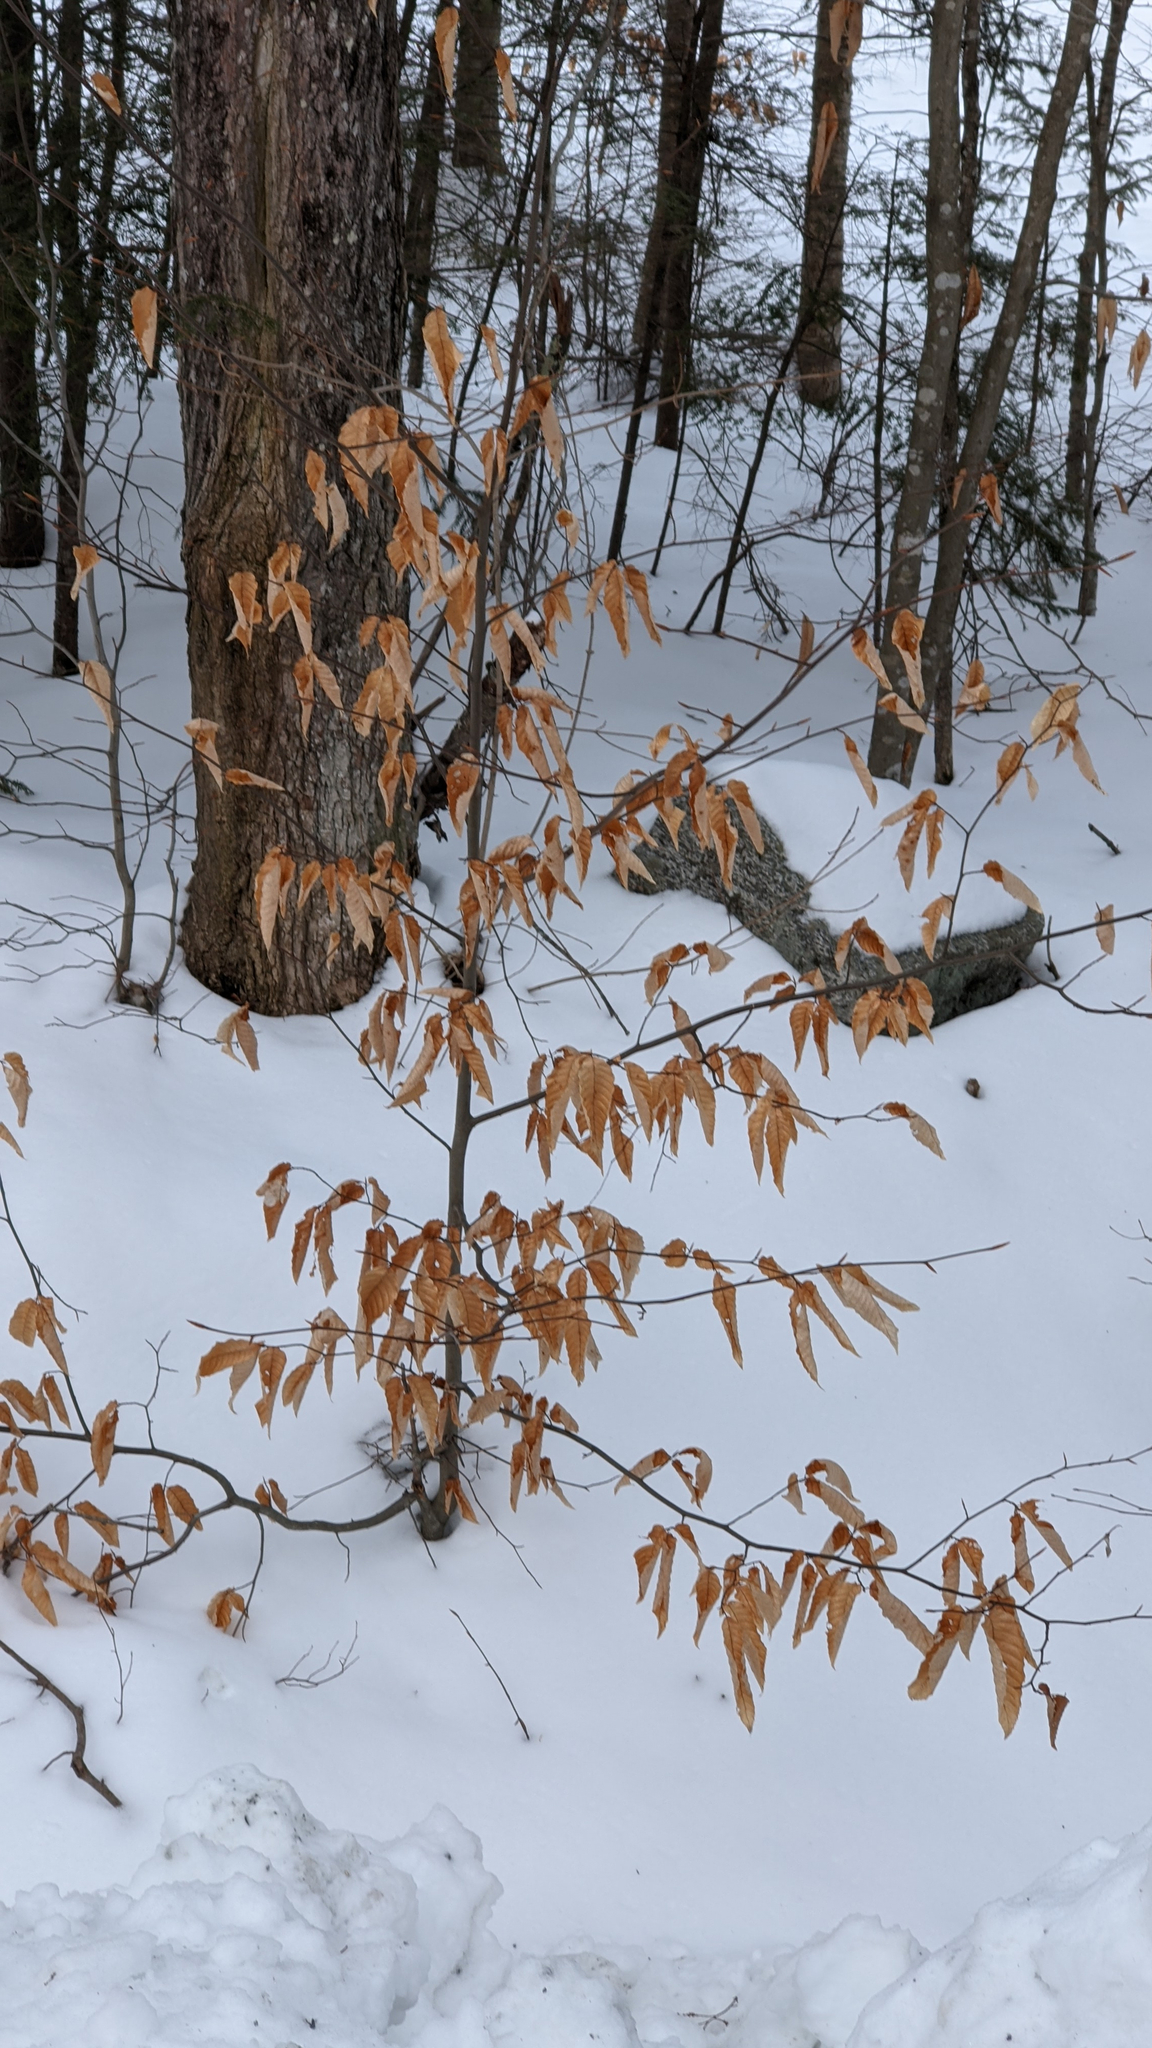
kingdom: Plantae
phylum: Tracheophyta
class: Magnoliopsida
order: Fagales
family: Fagaceae
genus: Fagus
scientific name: Fagus grandifolia
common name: American beech
